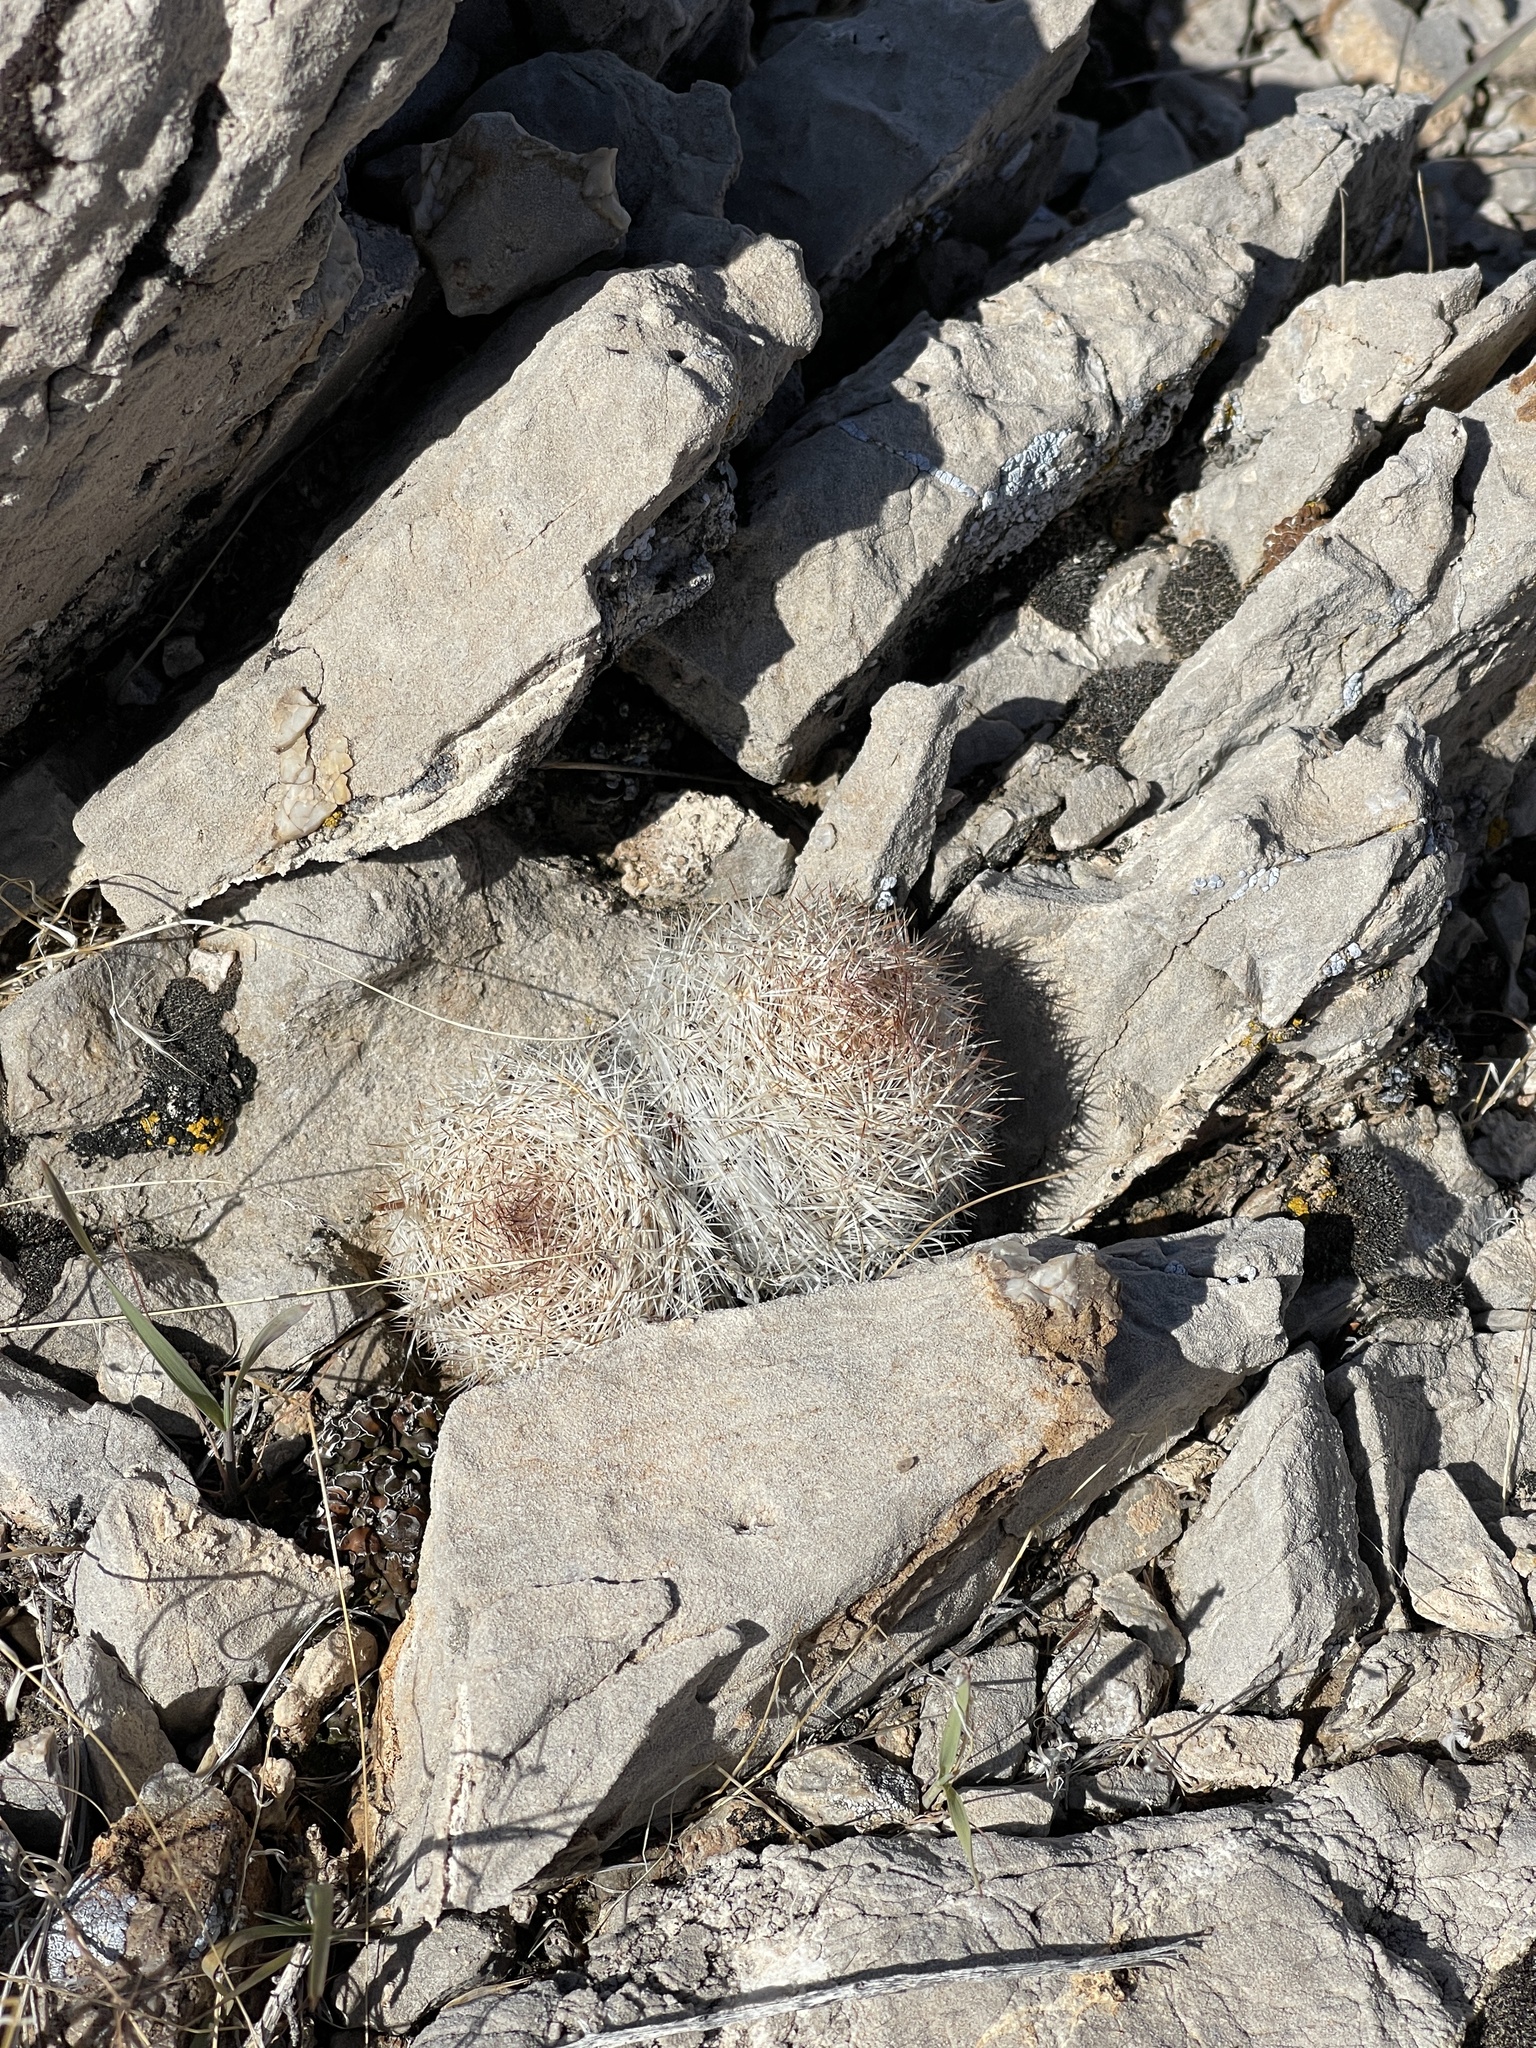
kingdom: Plantae
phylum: Tracheophyta
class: Magnoliopsida
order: Caryophyllales
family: Cactaceae
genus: Pelecyphora
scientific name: Pelecyphora dasyacantha
